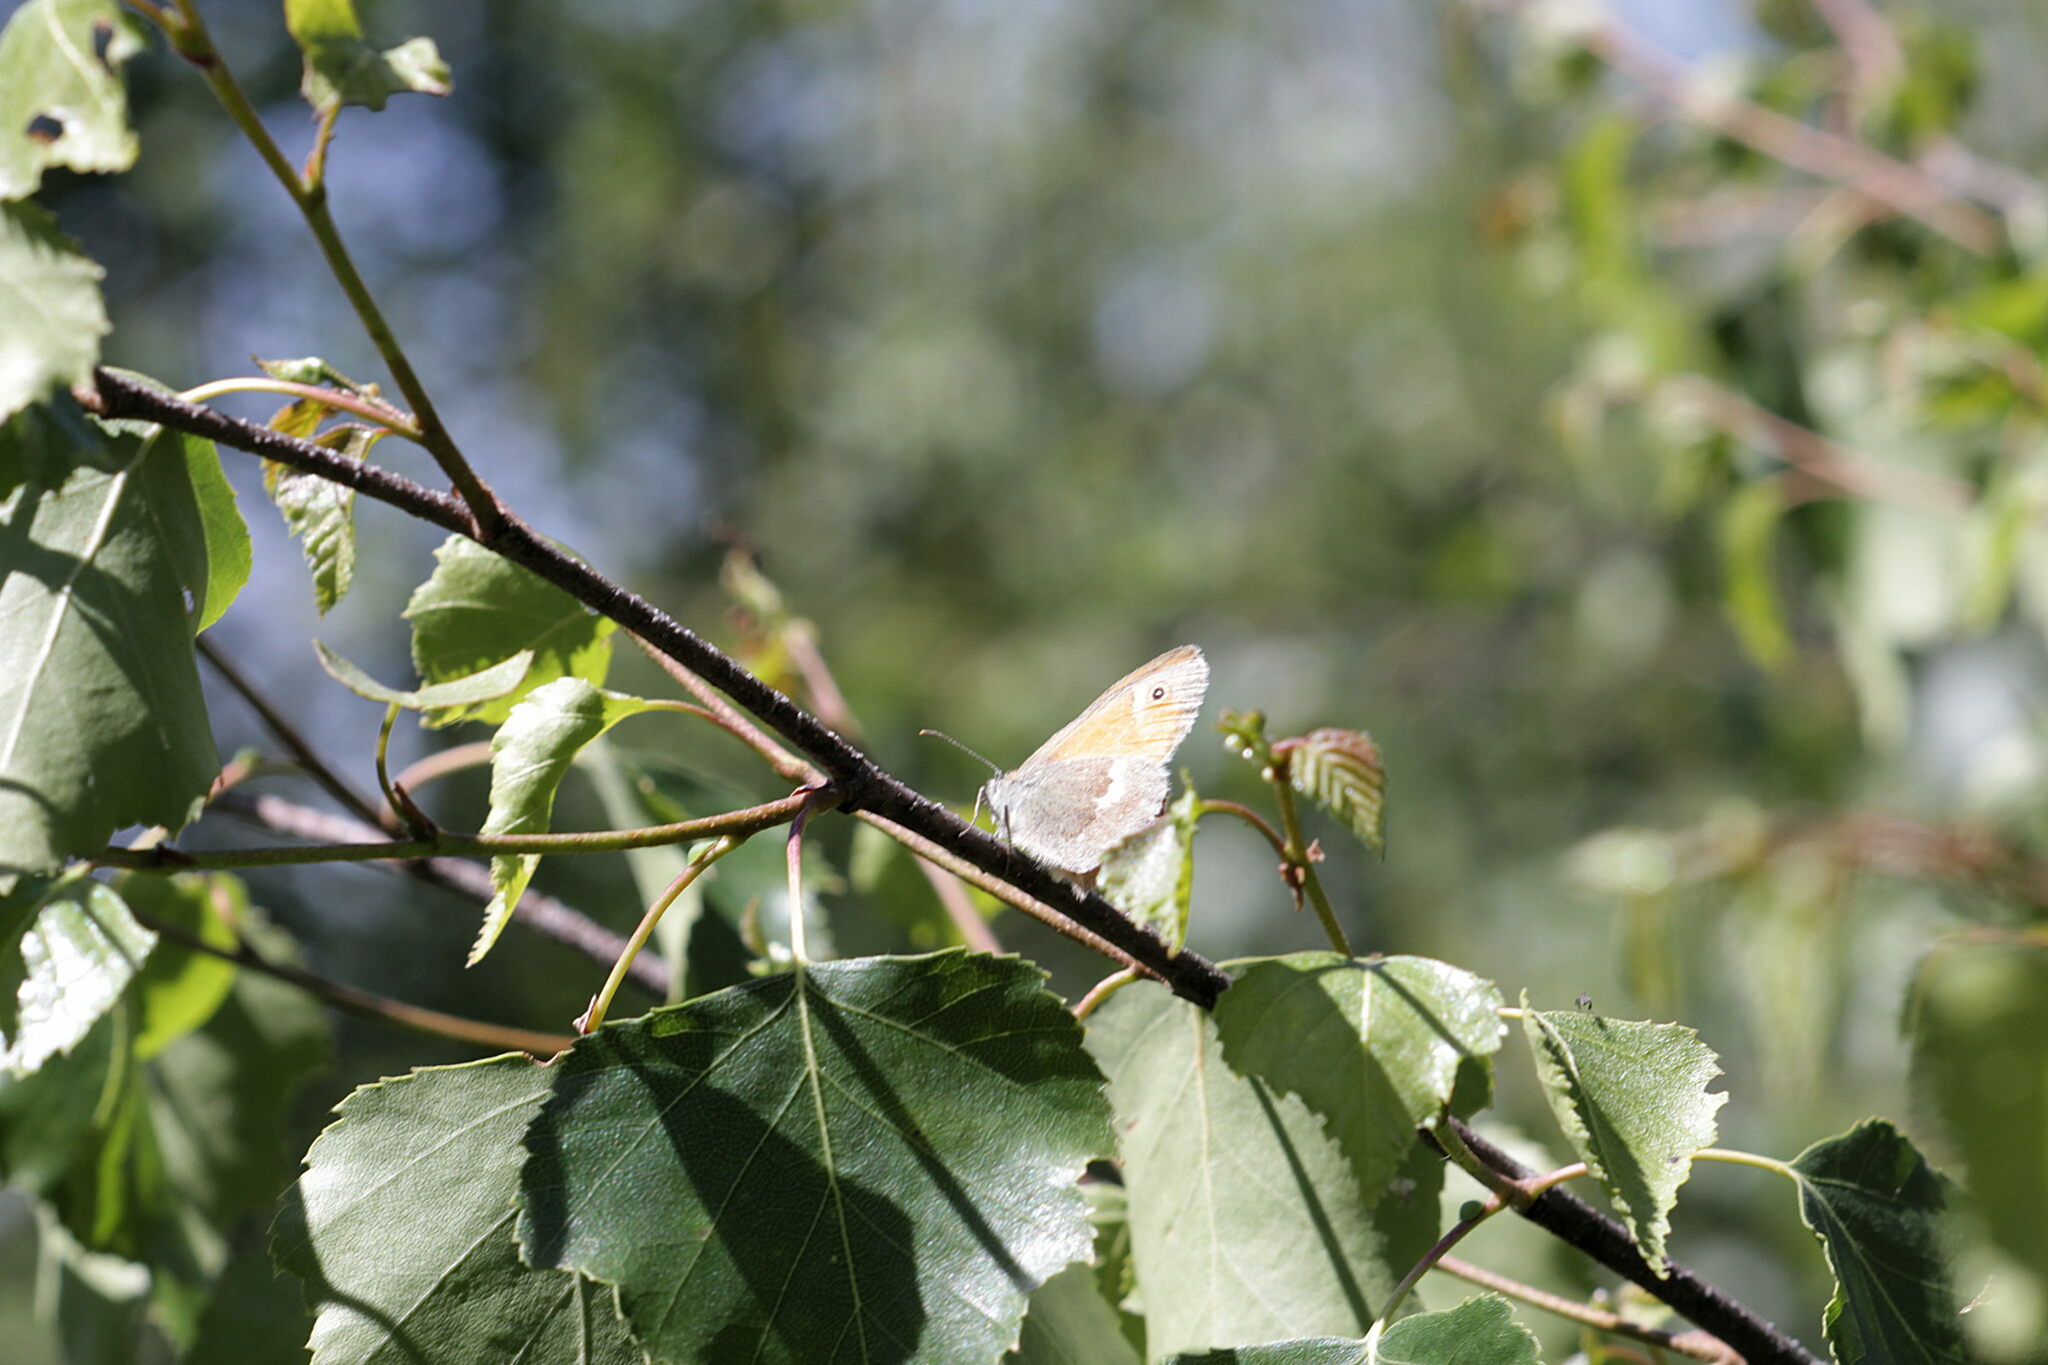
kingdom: Animalia
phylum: Arthropoda
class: Insecta
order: Lepidoptera
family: Nymphalidae
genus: Coenonympha
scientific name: Coenonympha pamphilus
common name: Small heath
